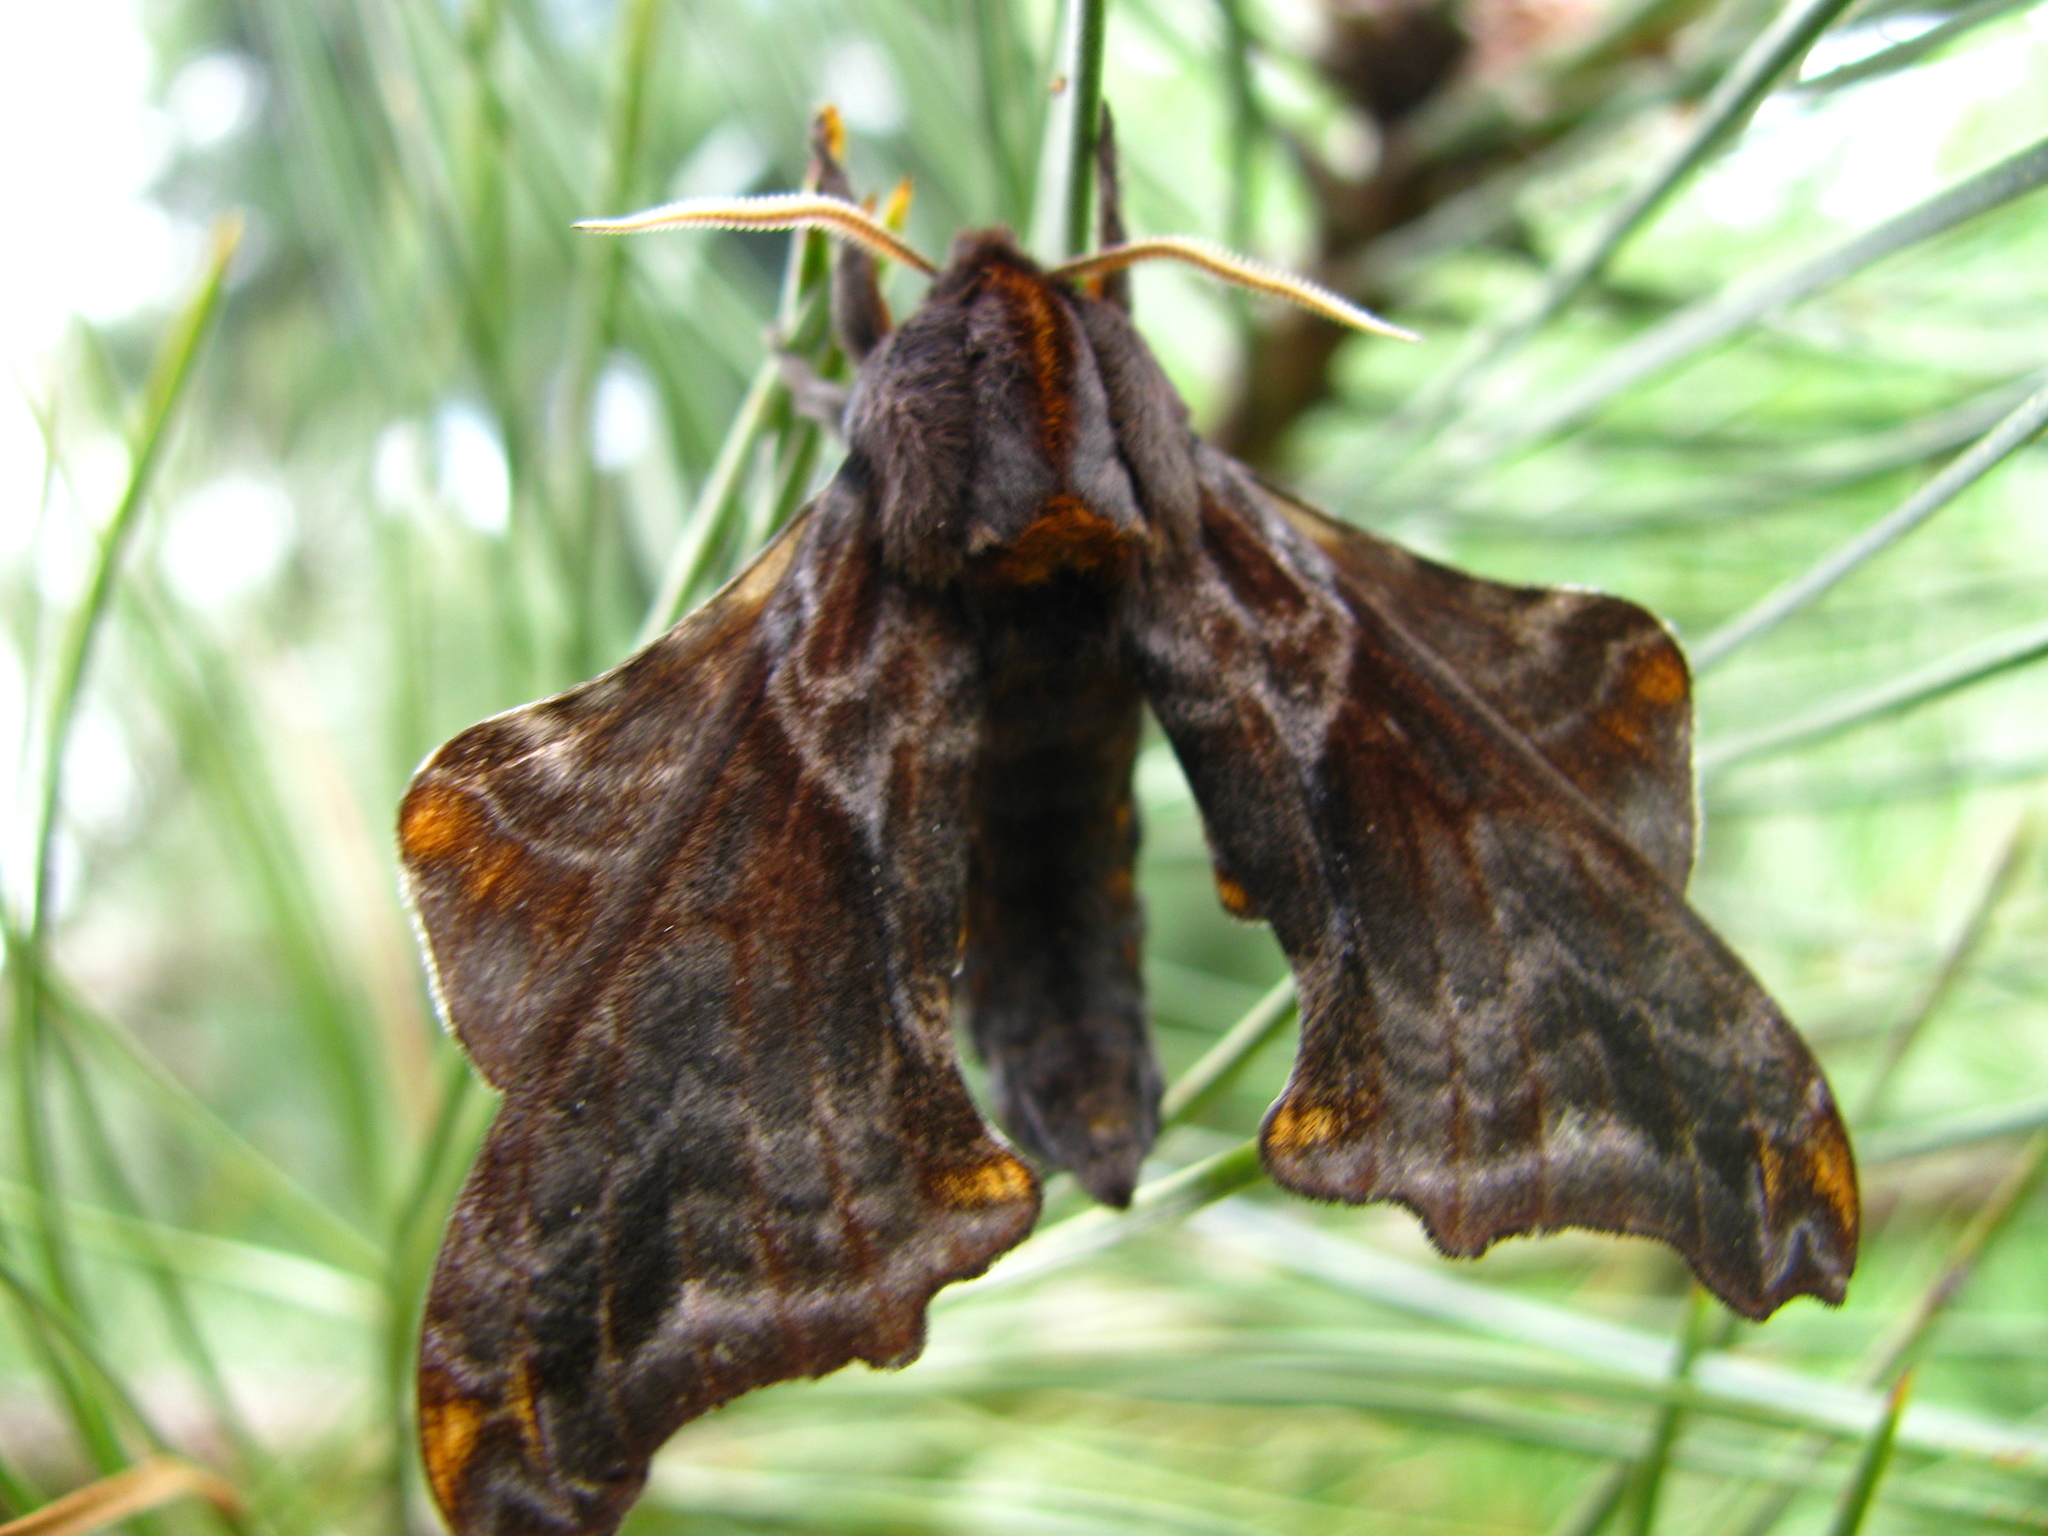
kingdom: Animalia
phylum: Arthropoda
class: Insecta
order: Lepidoptera
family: Sphingidae
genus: Paonias
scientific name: Paonias myops
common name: Small-eyed sphinx
